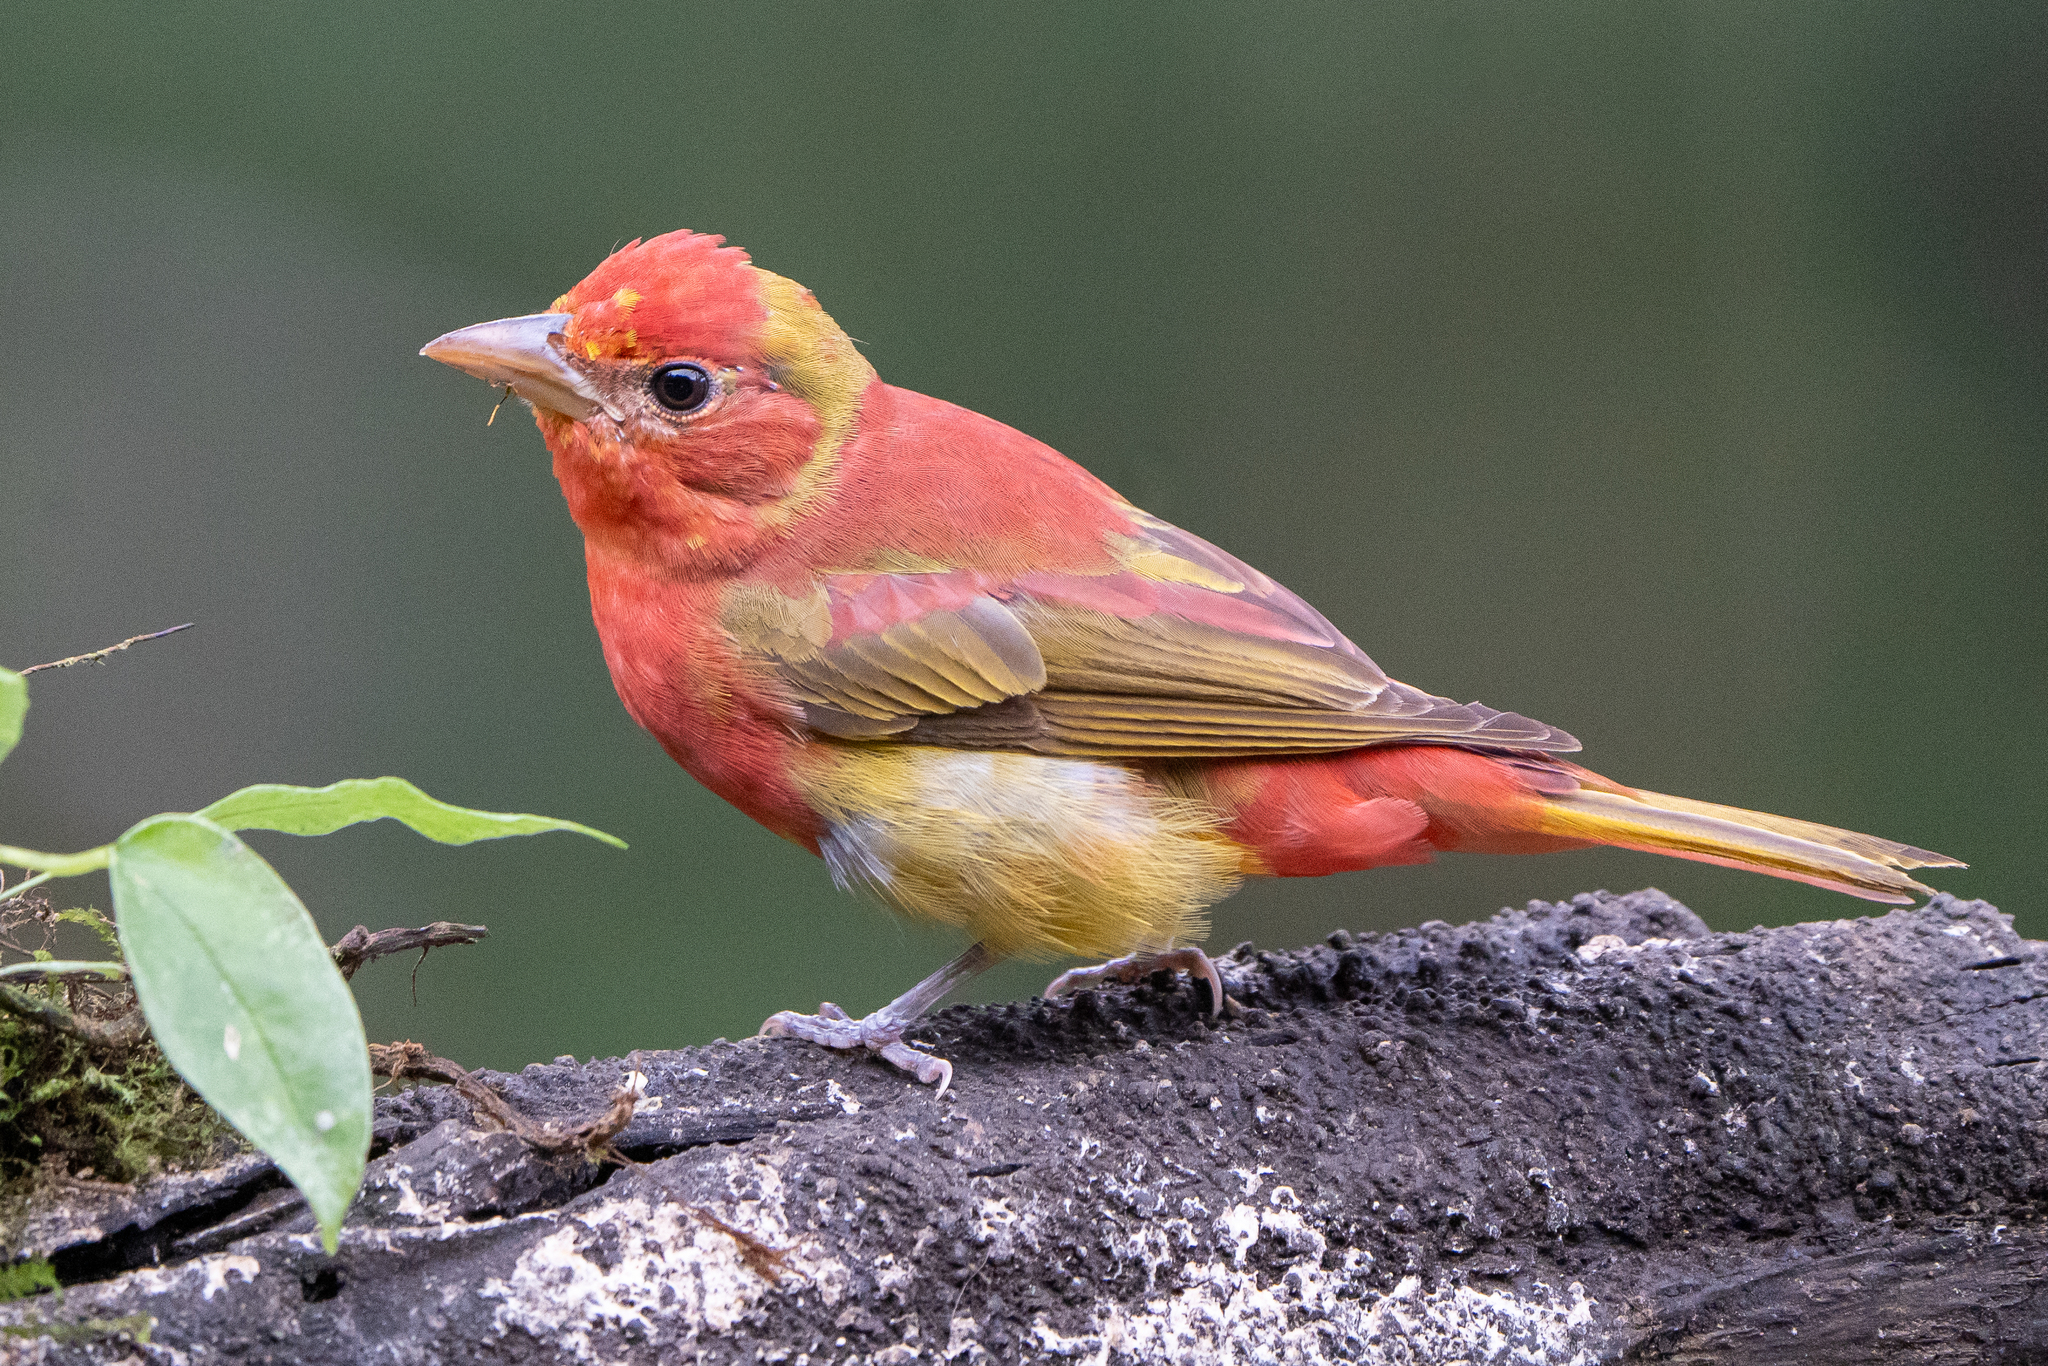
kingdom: Animalia
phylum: Chordata
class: Aves
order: Passeriformes
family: Cardinalidae
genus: Piranga
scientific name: Piranga rubra
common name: Summer tanager
